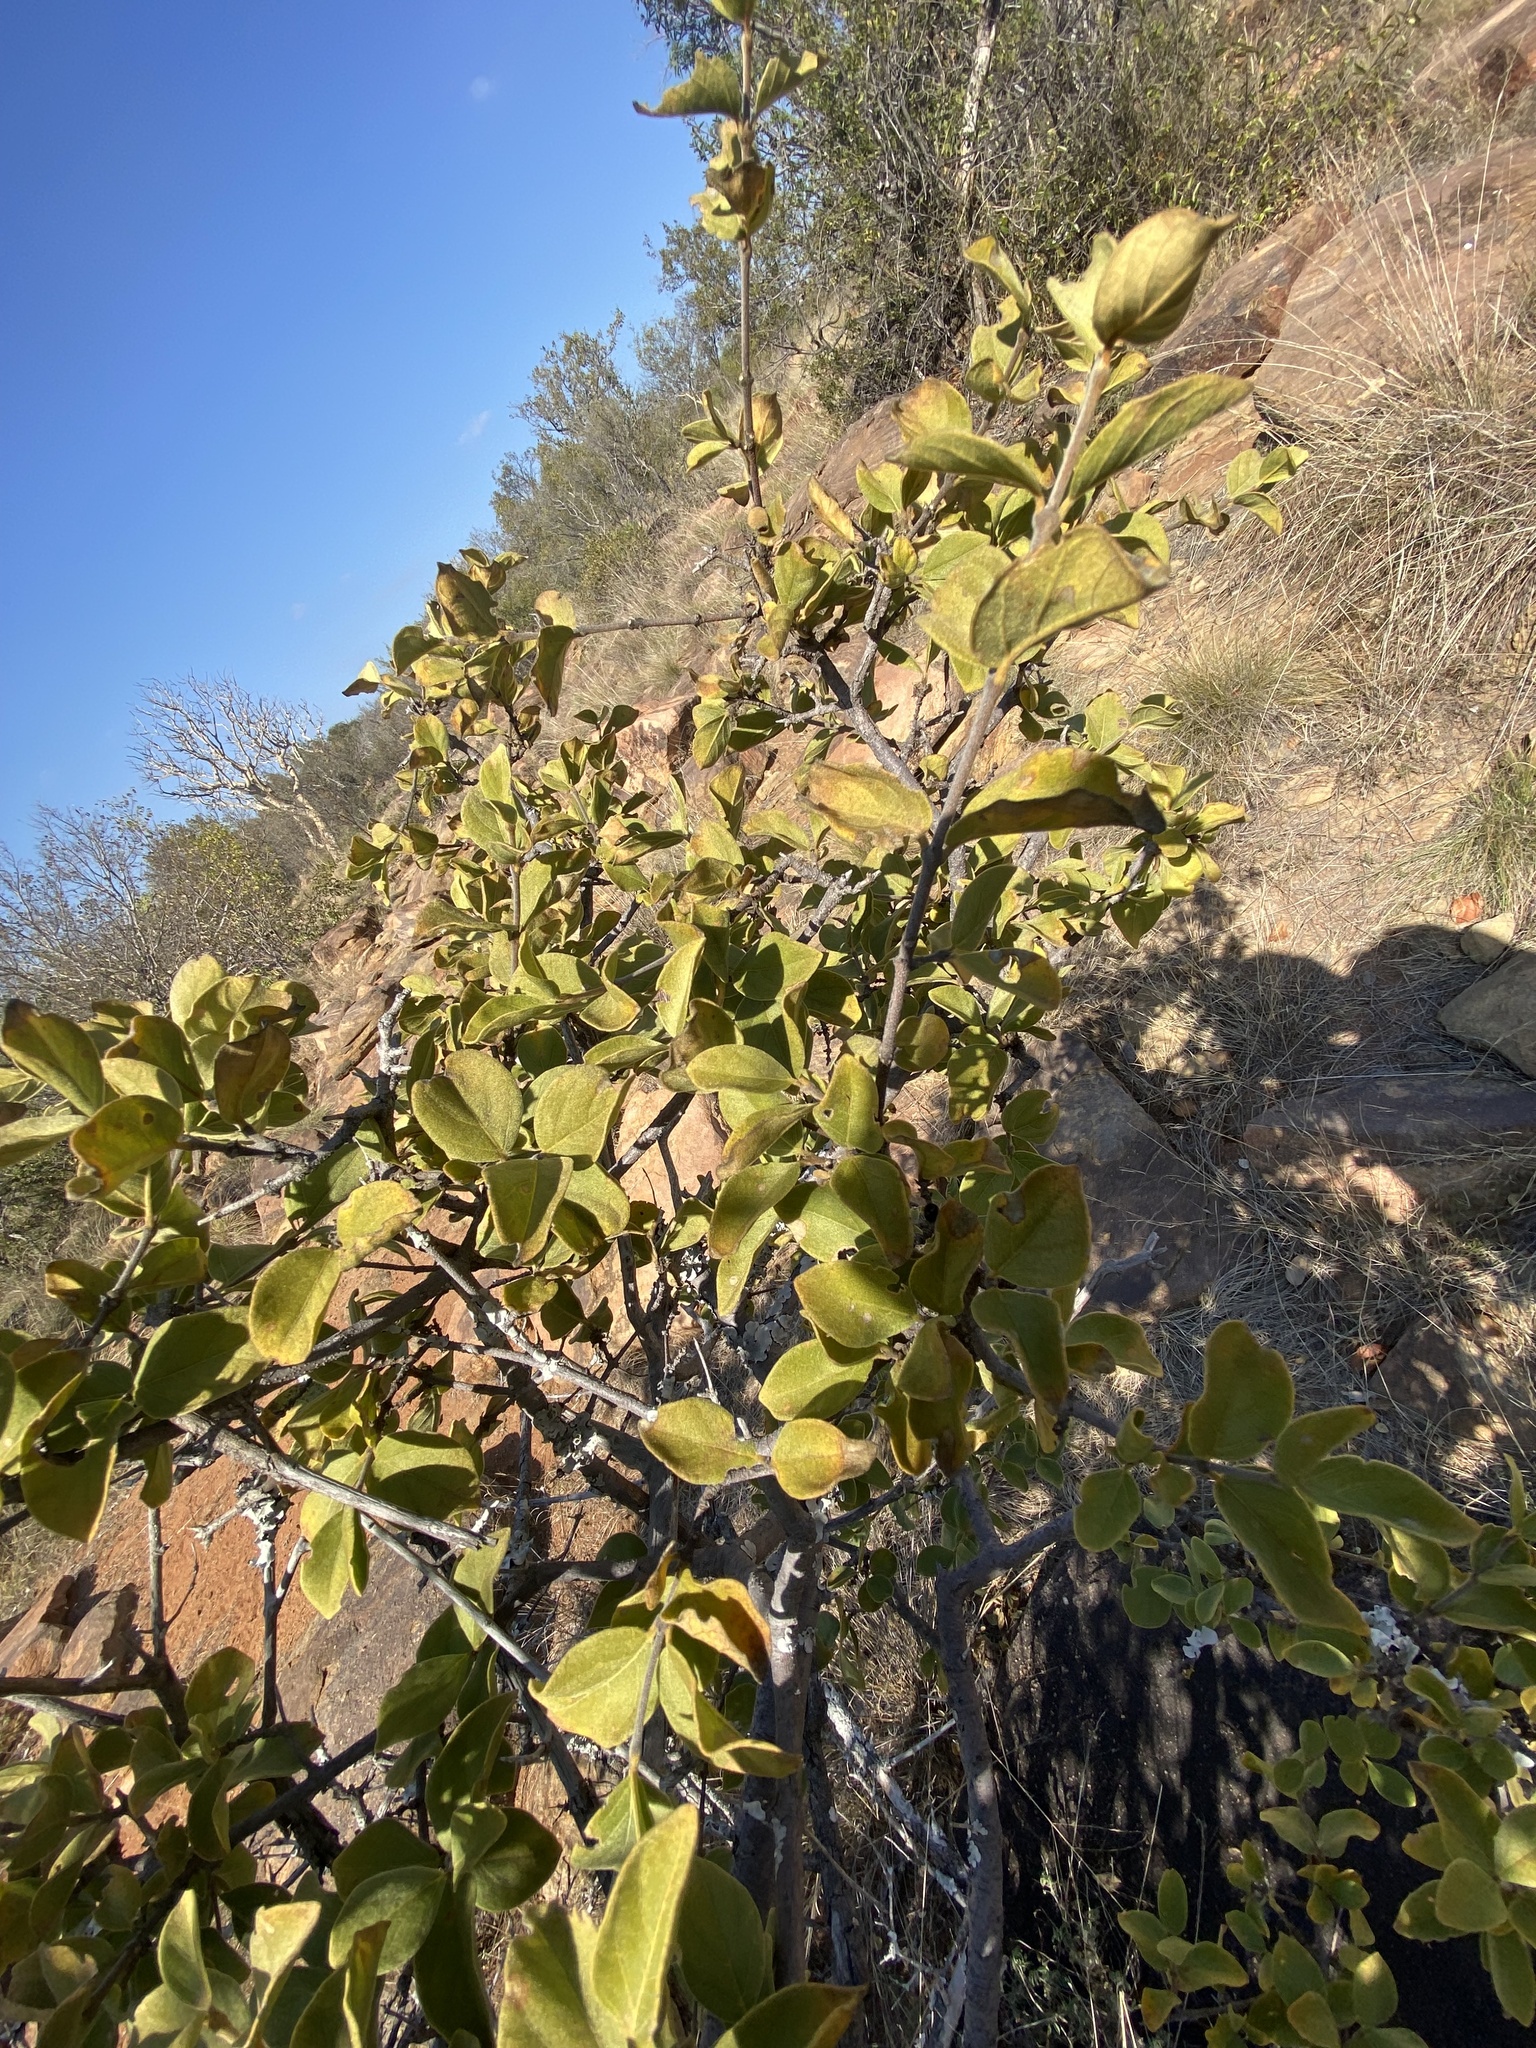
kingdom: Plantae
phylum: Tracheophyta
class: Magnoliopsida
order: Gentianales
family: Rubiaceae
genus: Vangueria
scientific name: Vangueria parvifolia
